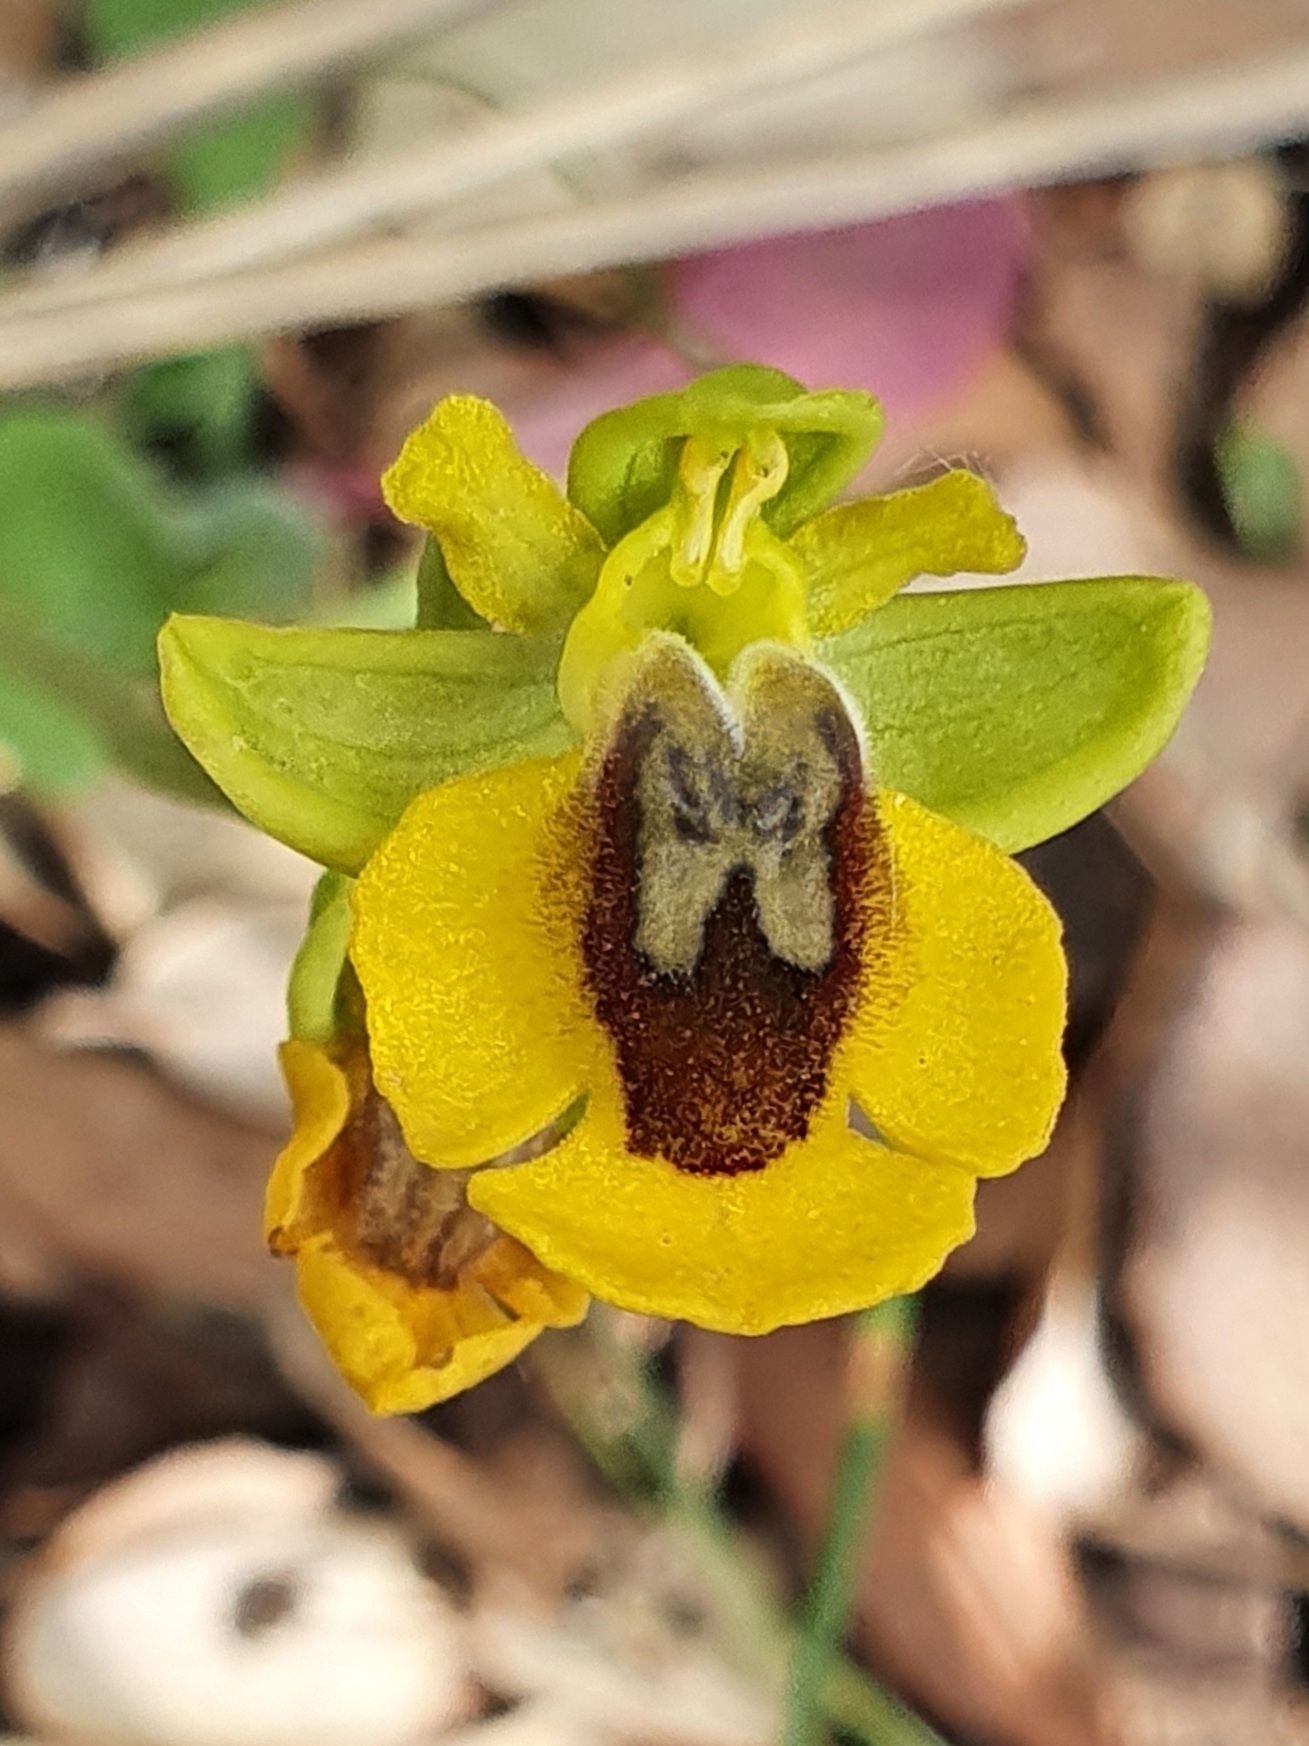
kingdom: Plantae
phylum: Tracheophyta
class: Liliopsida
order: Asparagales
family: Orchidaceae
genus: Ophrys
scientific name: Ophrys lutea
